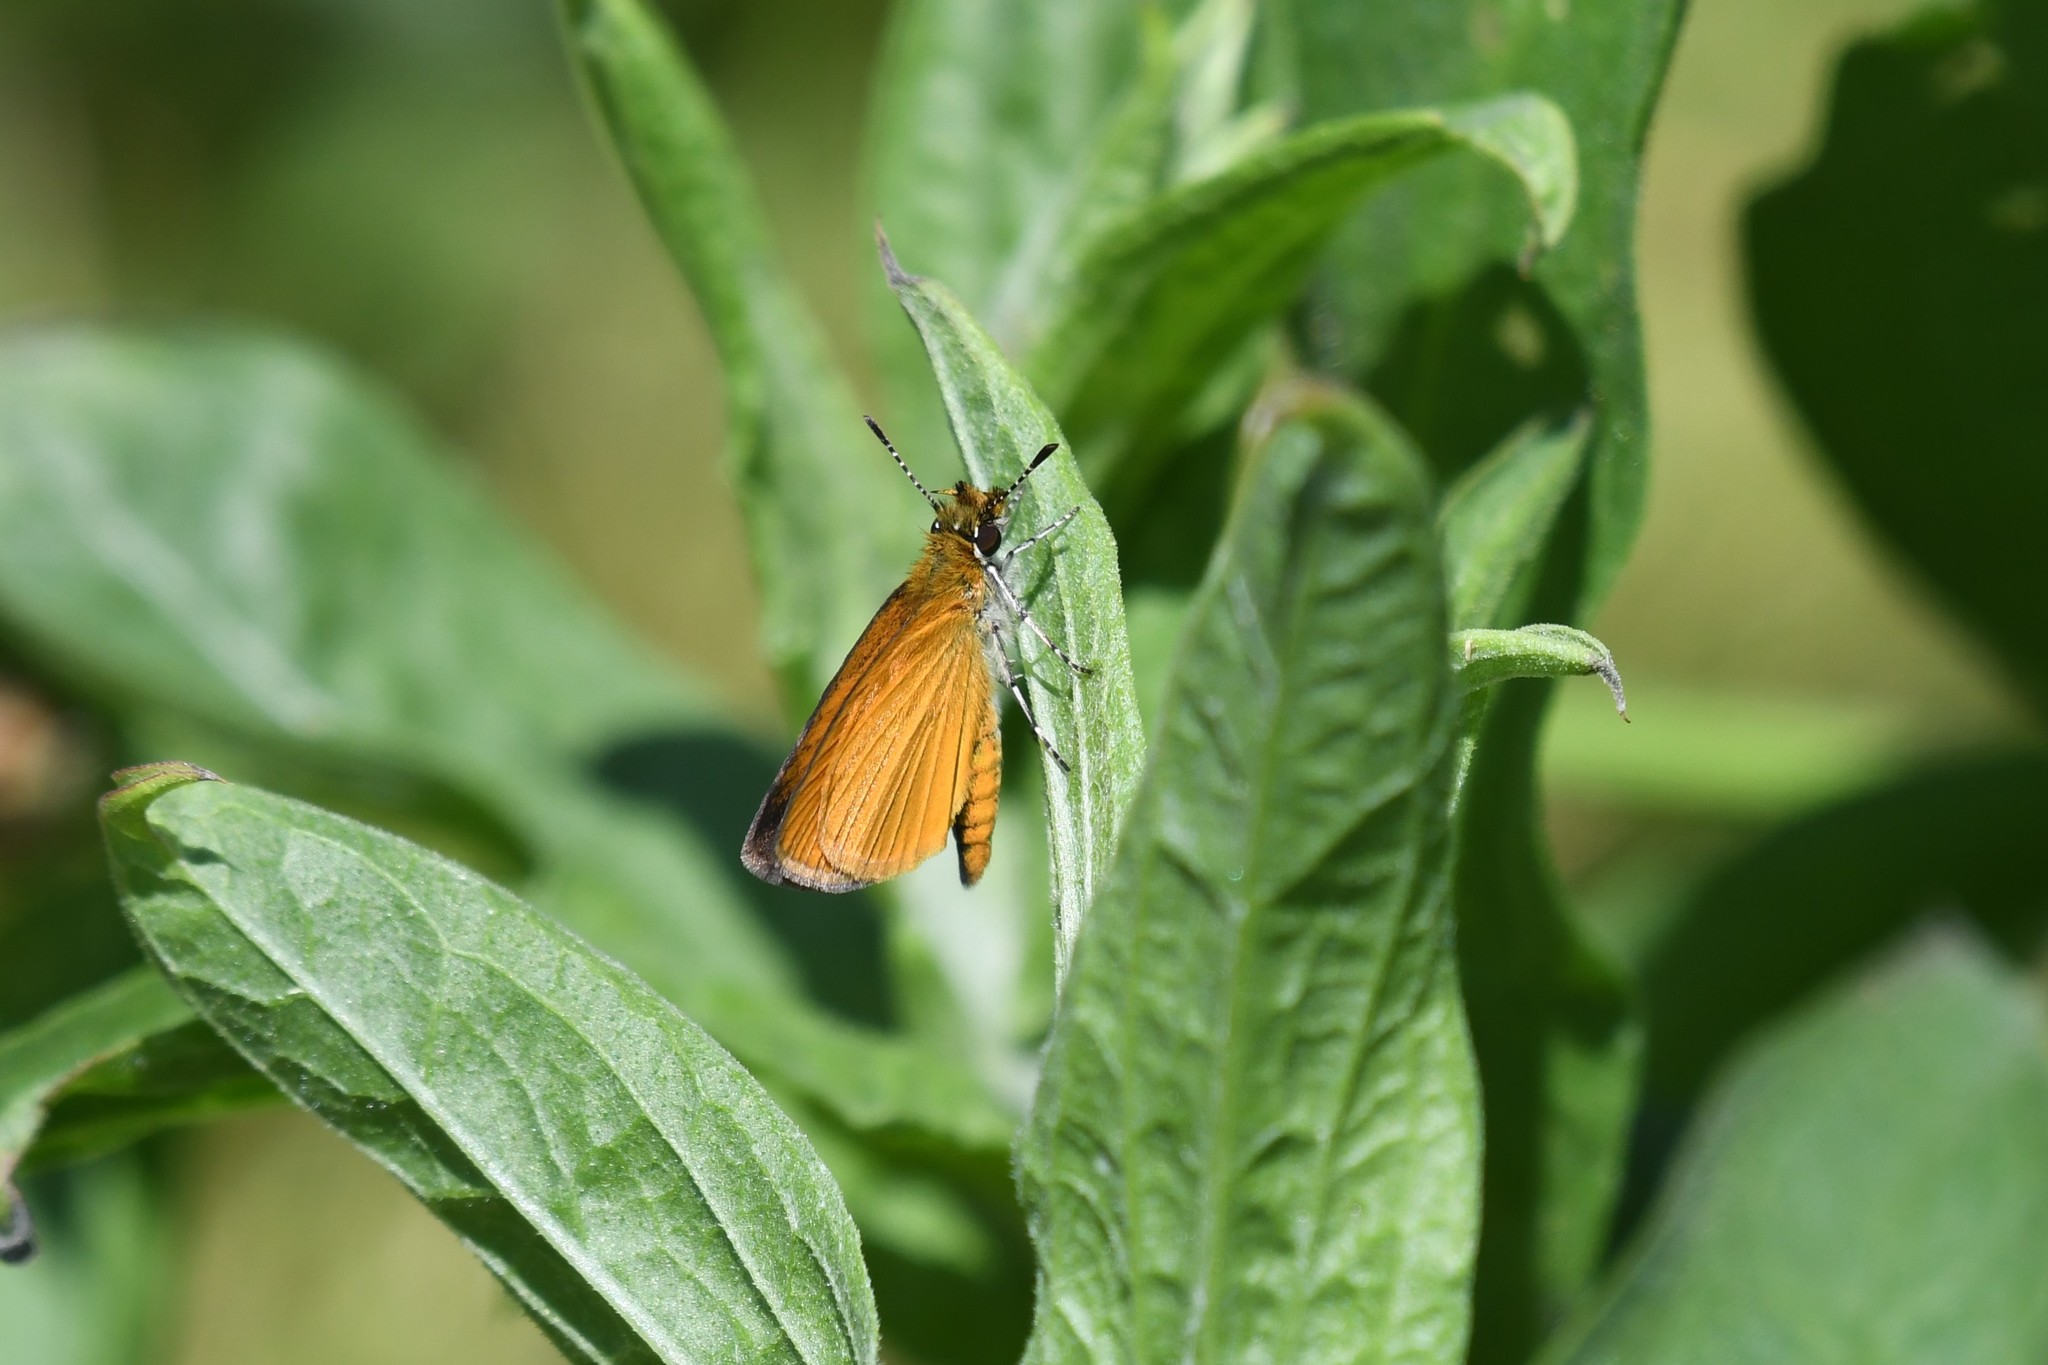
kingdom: Animalia
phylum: Arthropoda
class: Insecta
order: Lepidoptera
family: Hesperiidae
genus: Ancyloxypha
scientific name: Ancyloxypha numitor
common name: Least skipper
